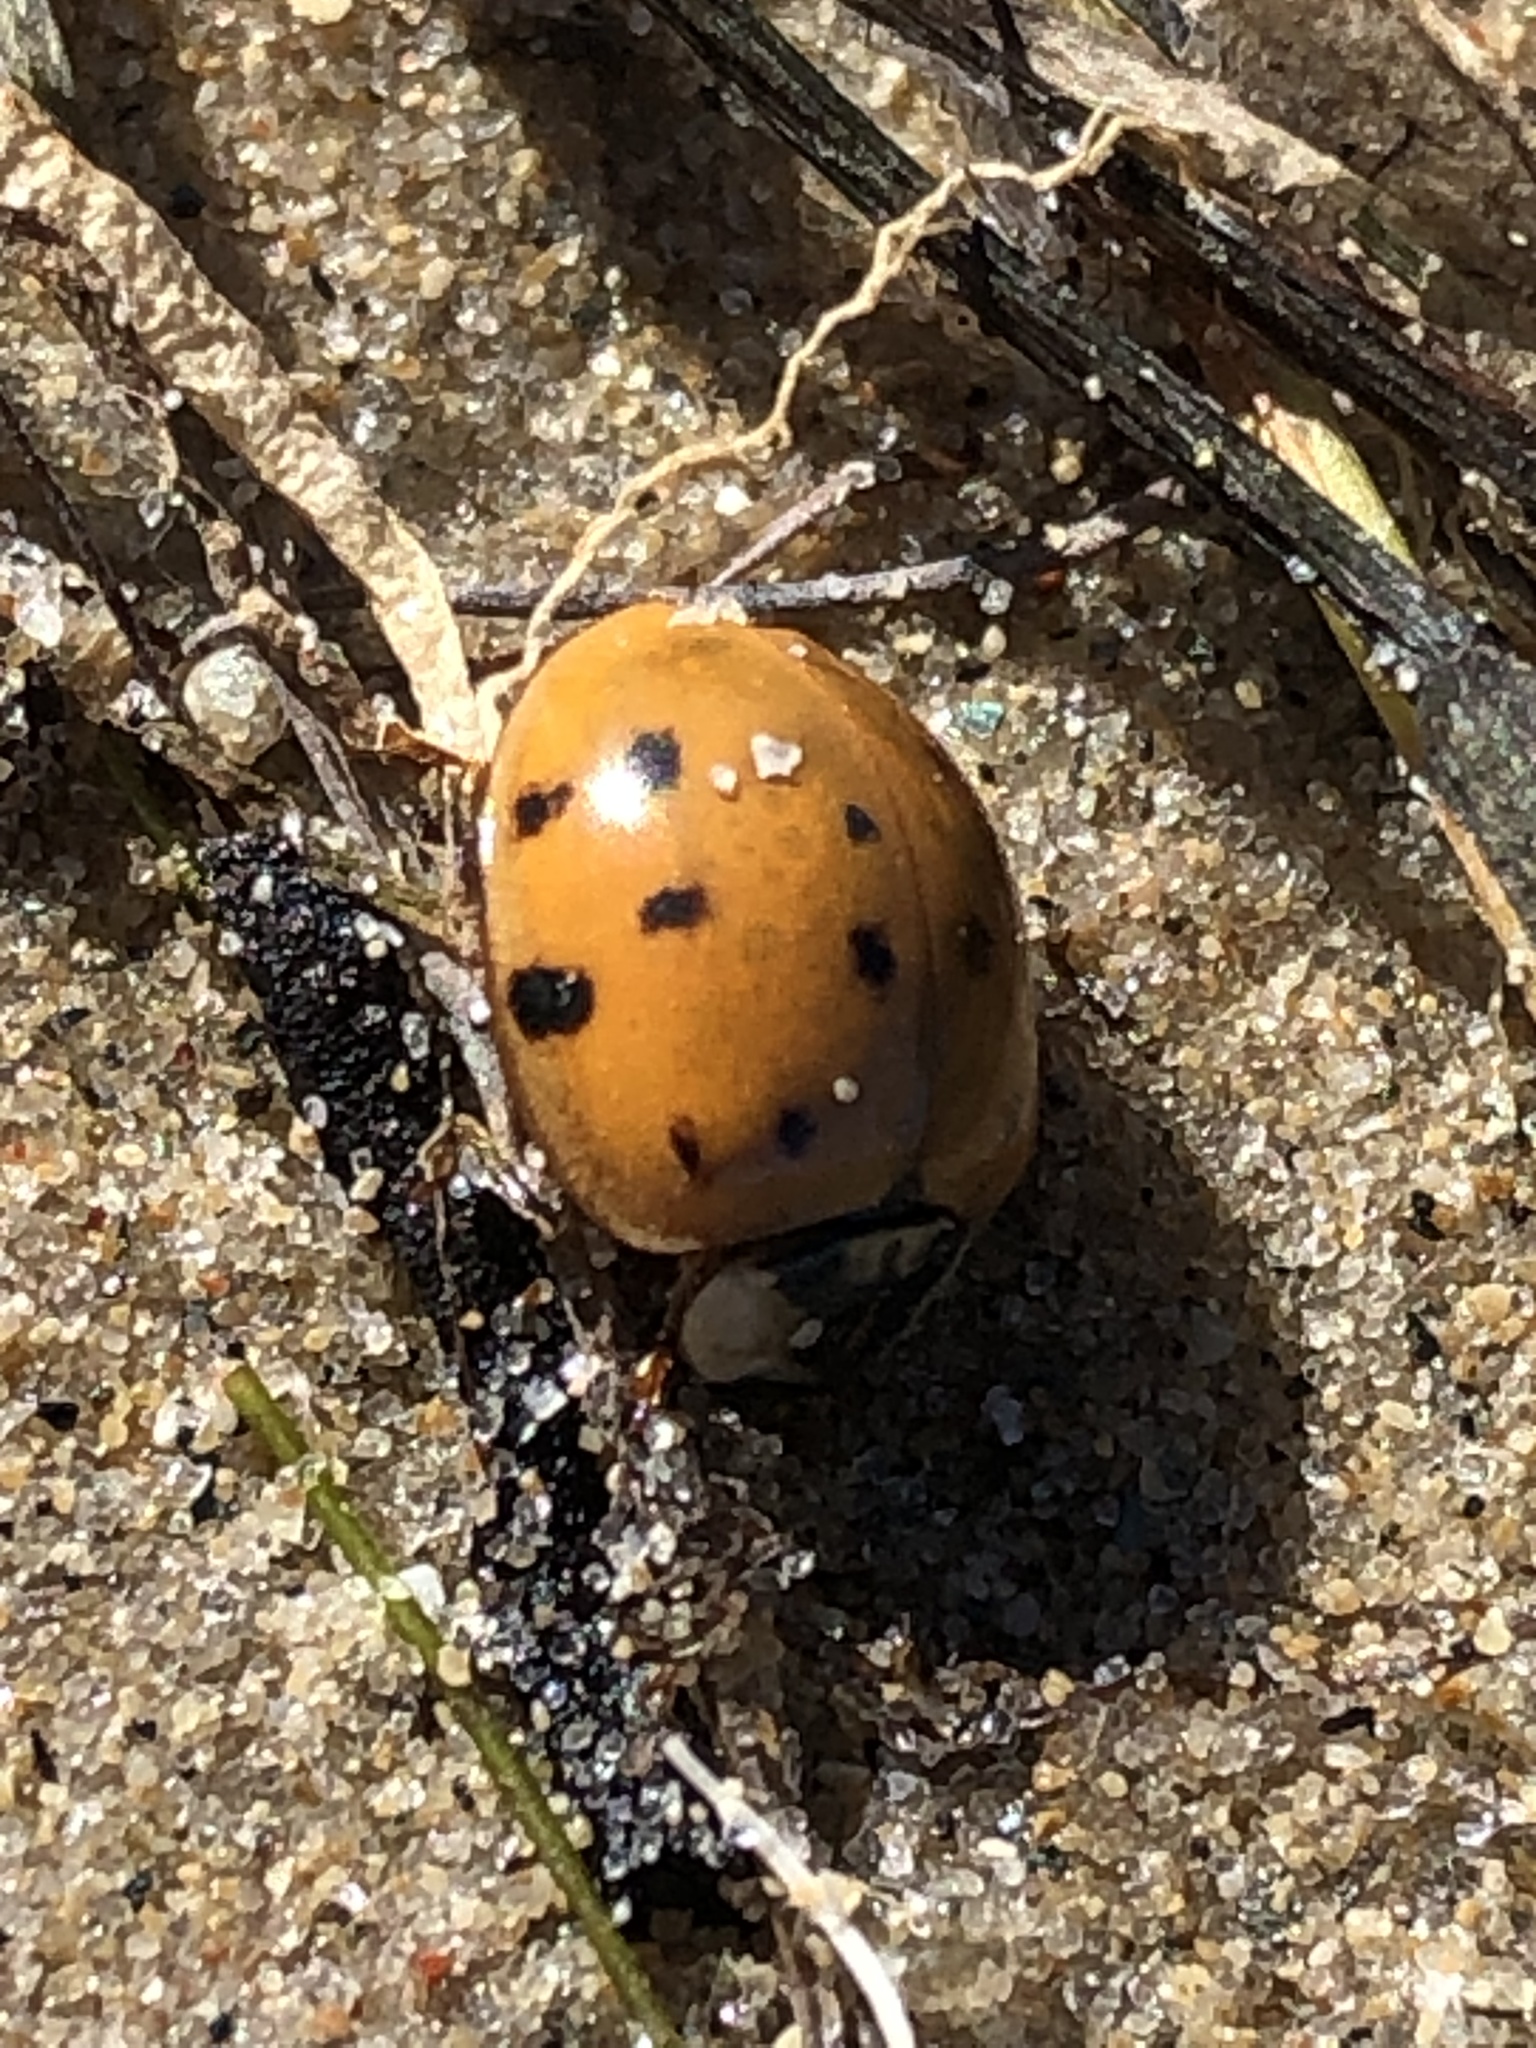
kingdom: Animalia
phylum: Arthropoda
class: Insecta
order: Coleoptera
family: Coccinellidae
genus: Harmonia
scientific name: Harmonia axyridis
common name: Harlequin ladybird
